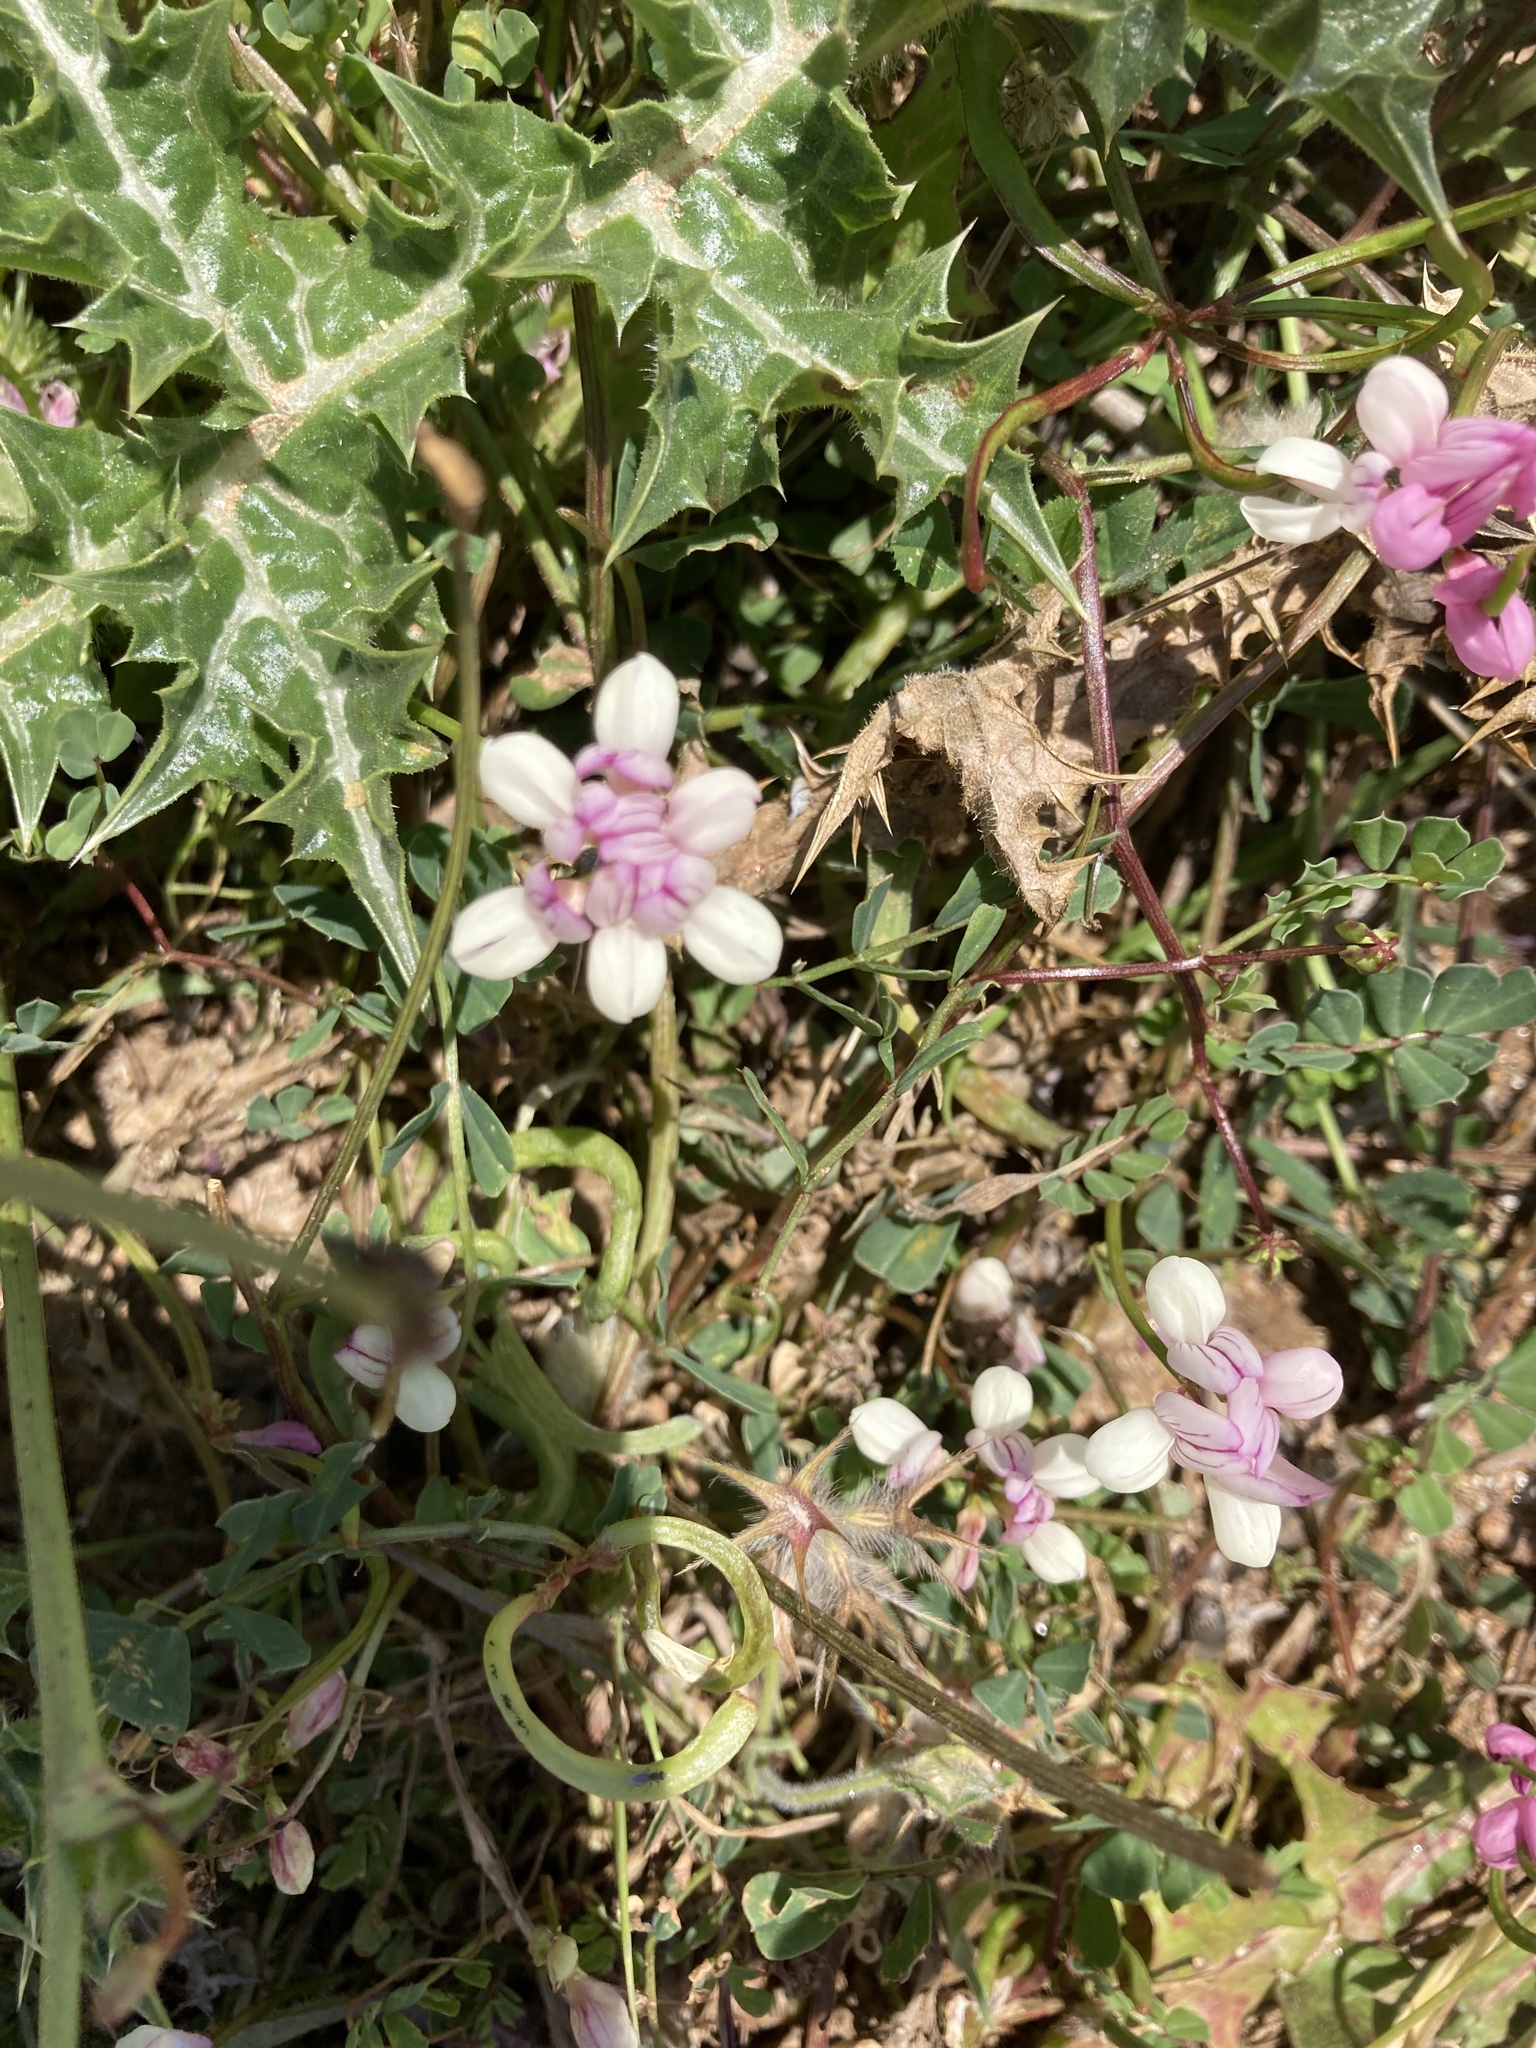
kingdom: Plantae
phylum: Tracheophyta
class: Magnoliopsida
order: Fabales
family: Fabaceae
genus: Coronilla
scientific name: Coronilla varia
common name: Crownvetch
